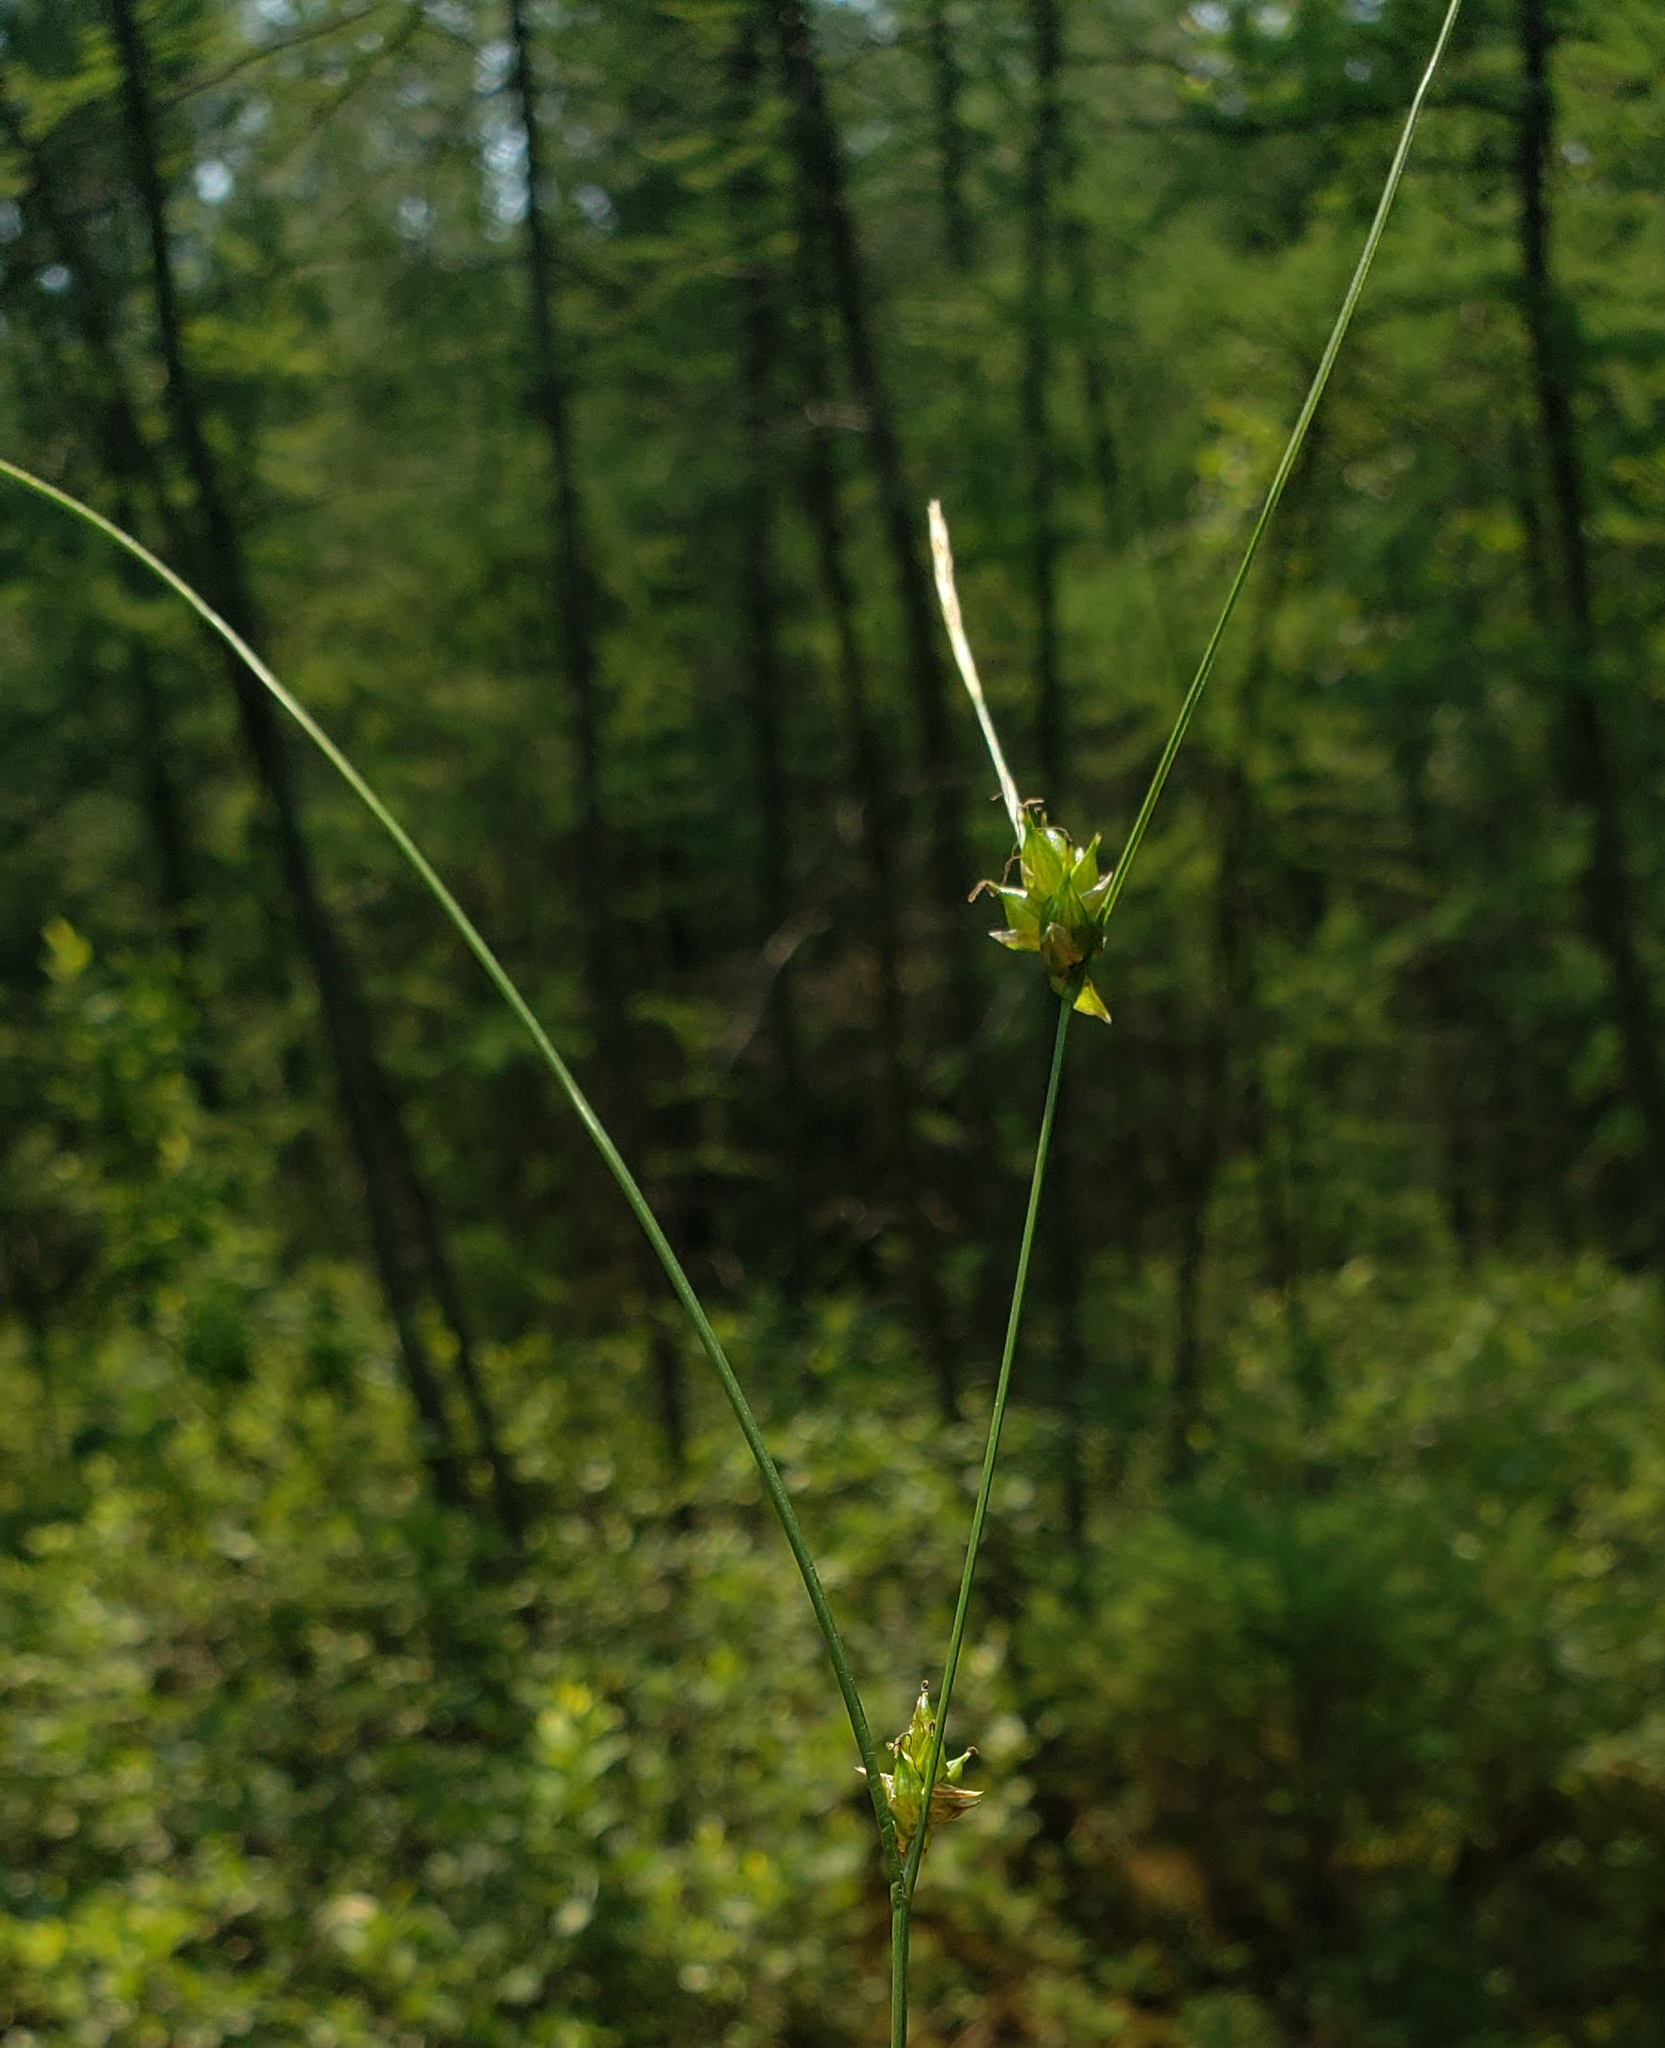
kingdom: Plantae
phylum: Tracheophyta
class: Liliopsida
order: Poales
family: Cyperaceae
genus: Carex
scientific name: Carex oligosperma
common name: Few-seed sedge
